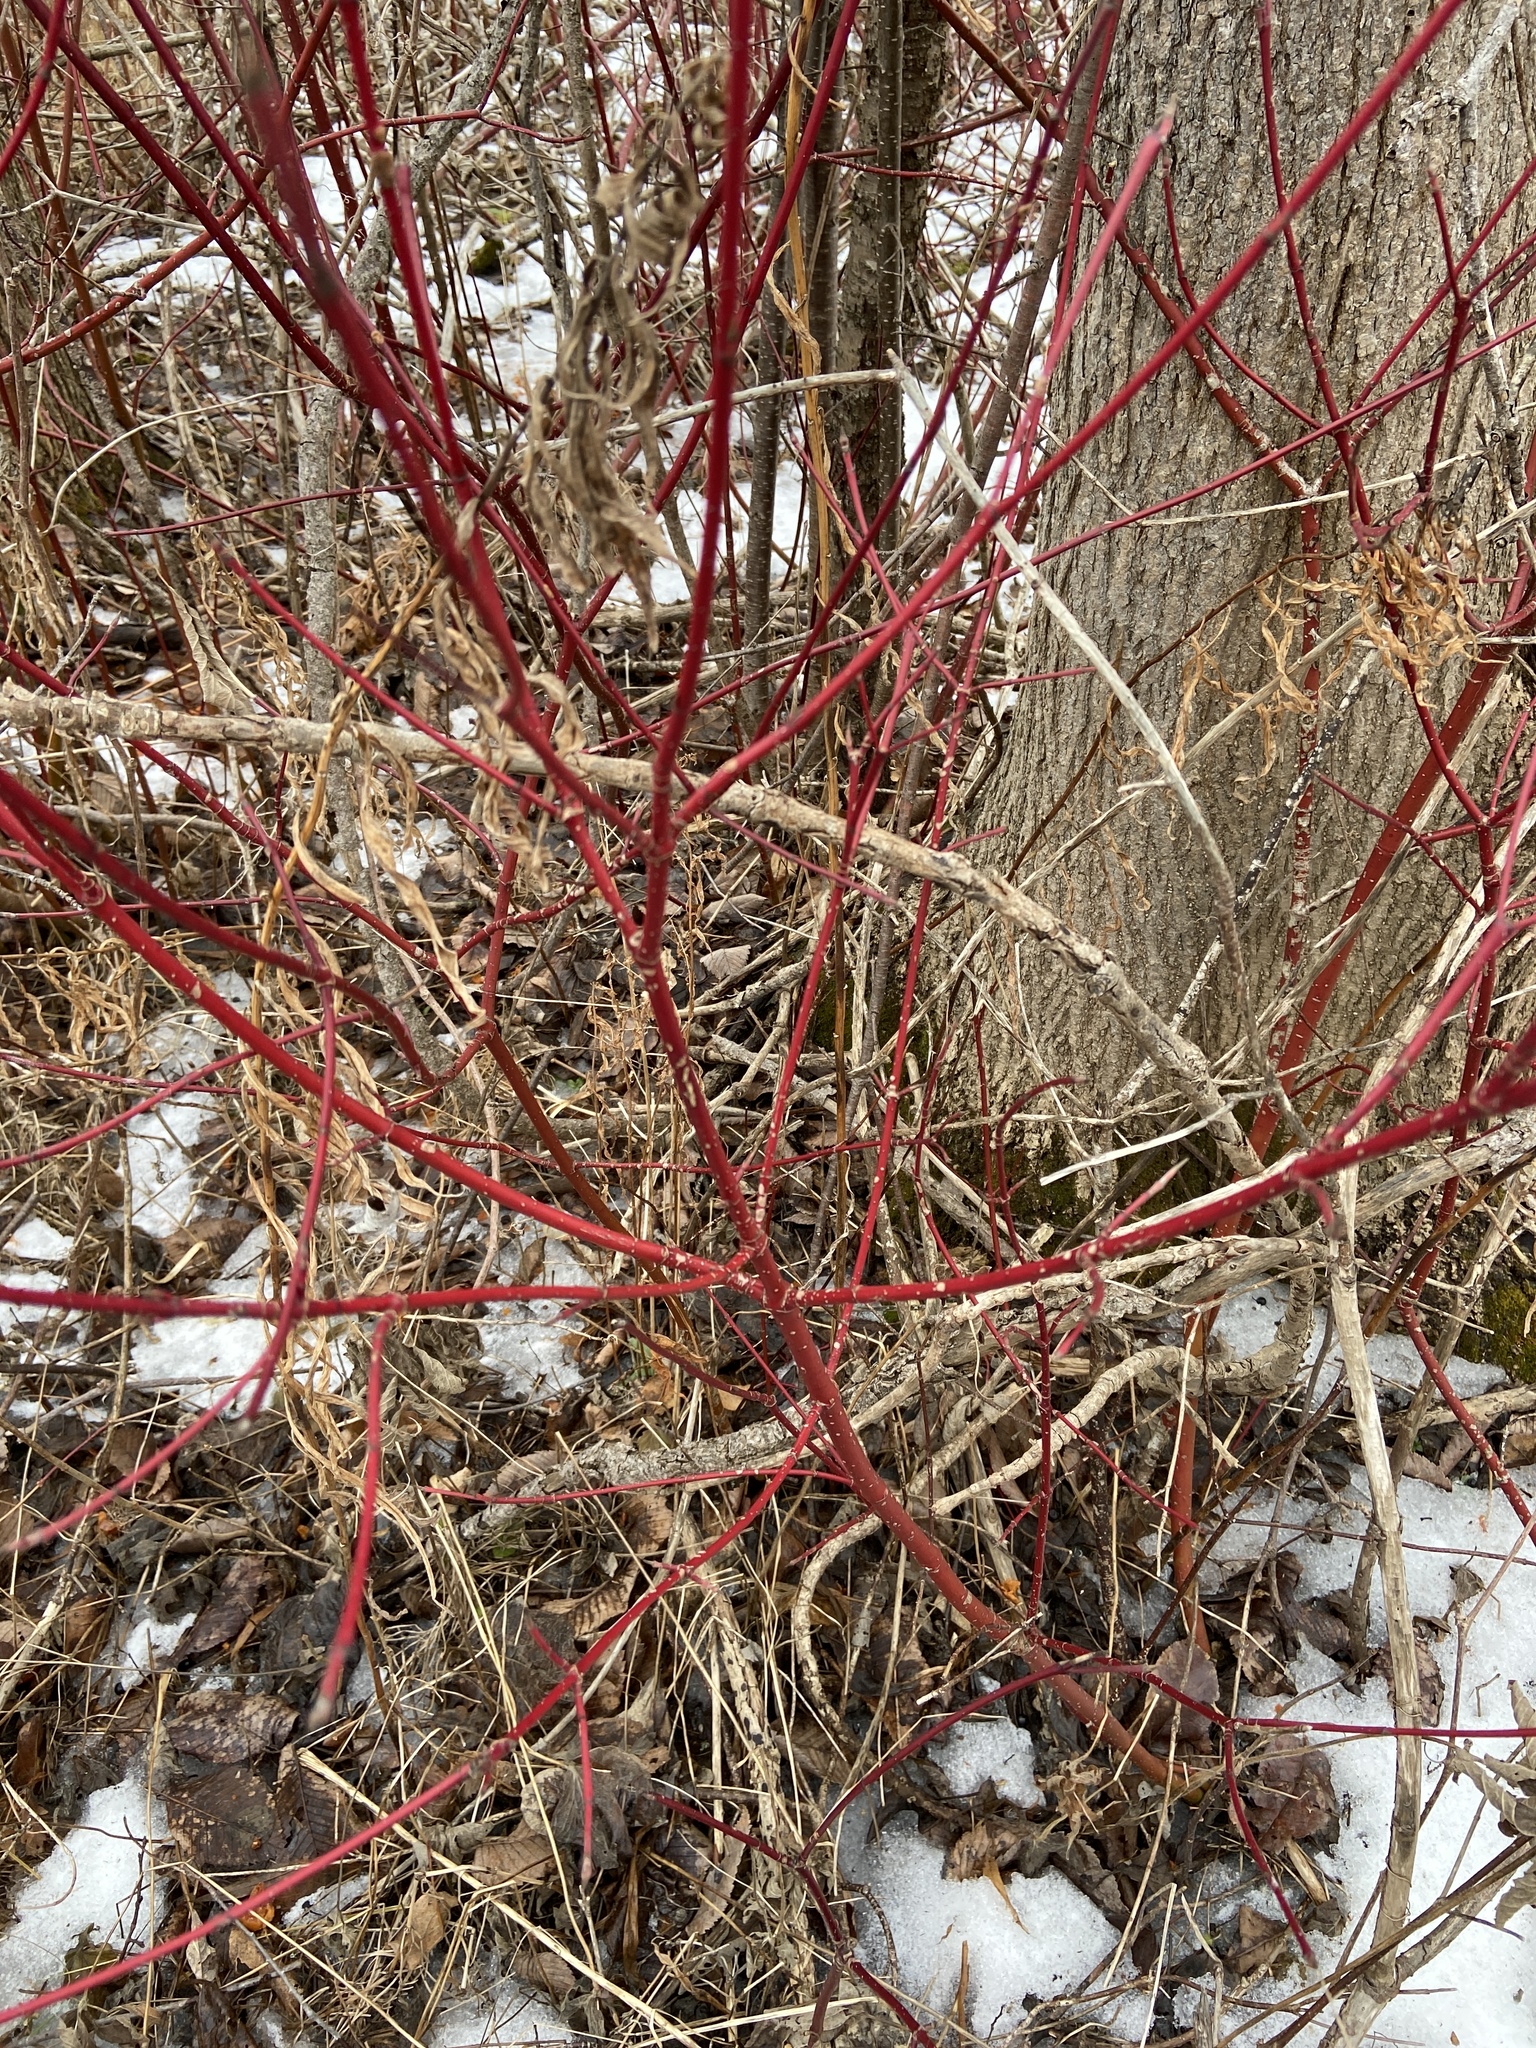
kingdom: Plantae
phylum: Tracheophyta
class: Magnoliopsida
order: Cornales
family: Cornaceae
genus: Cornus
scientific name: Cornus sericea
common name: Red-osier dogwood
